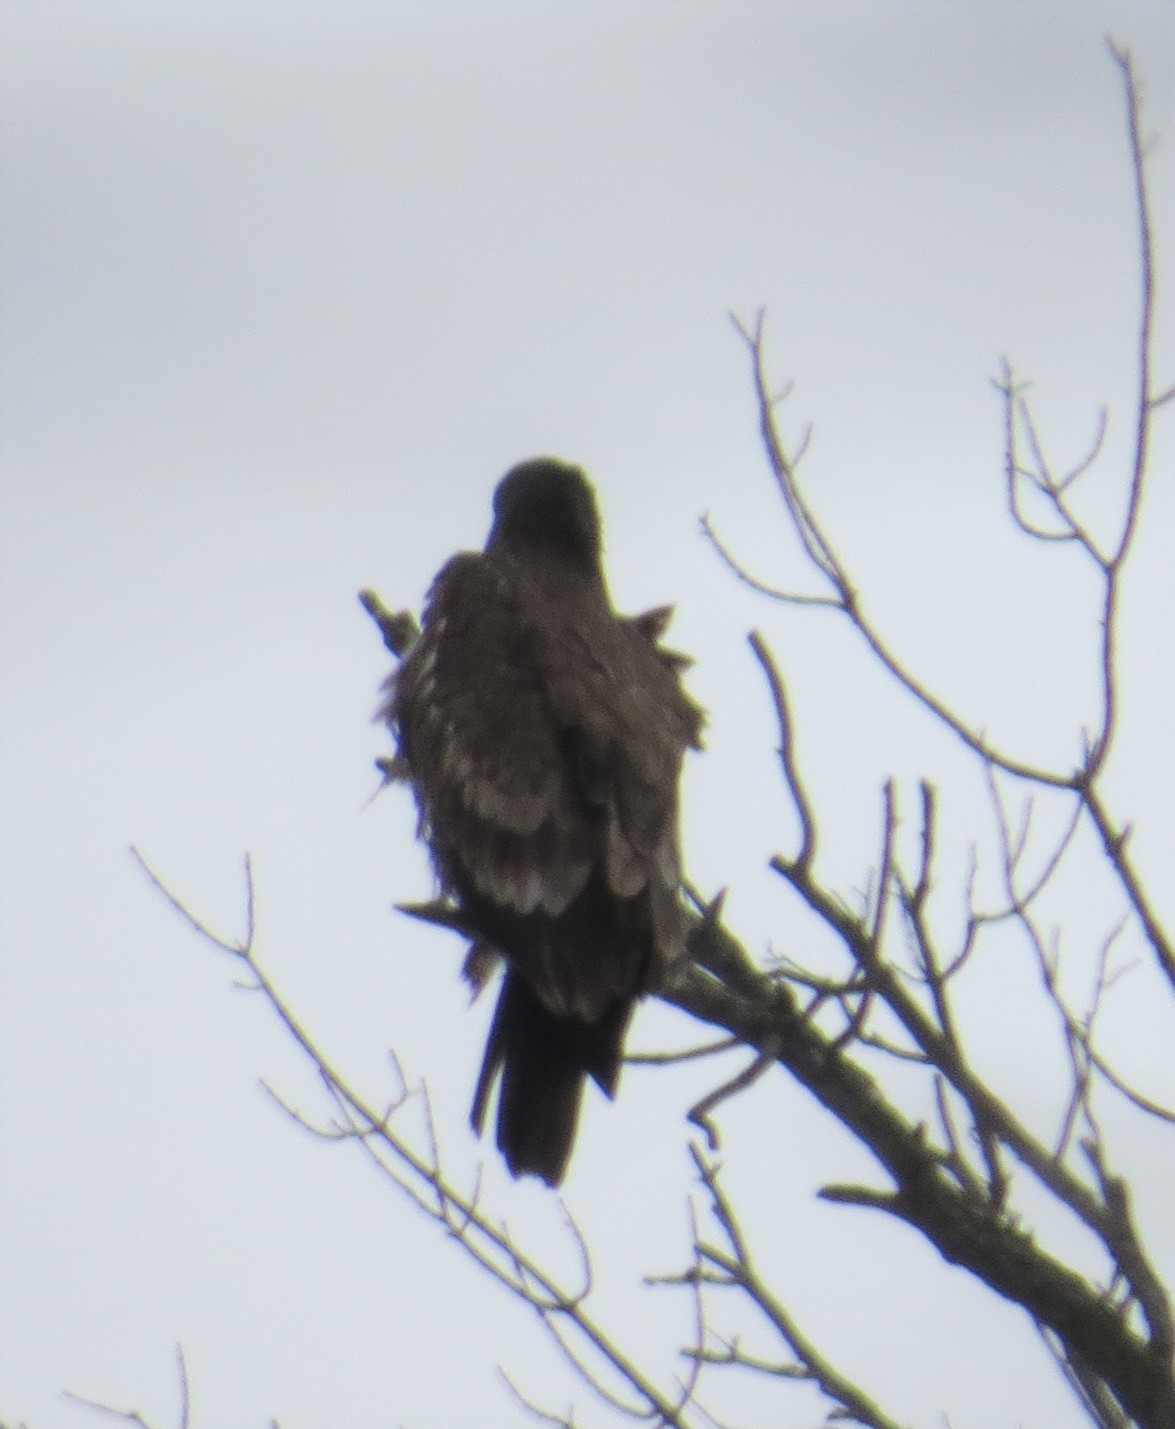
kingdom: Animalia
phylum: Chordata
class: Aves
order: Accipitriformes
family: Accipitridae
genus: Haliaeetus
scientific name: Haliaeetus leucocephalus
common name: Bald eagle
